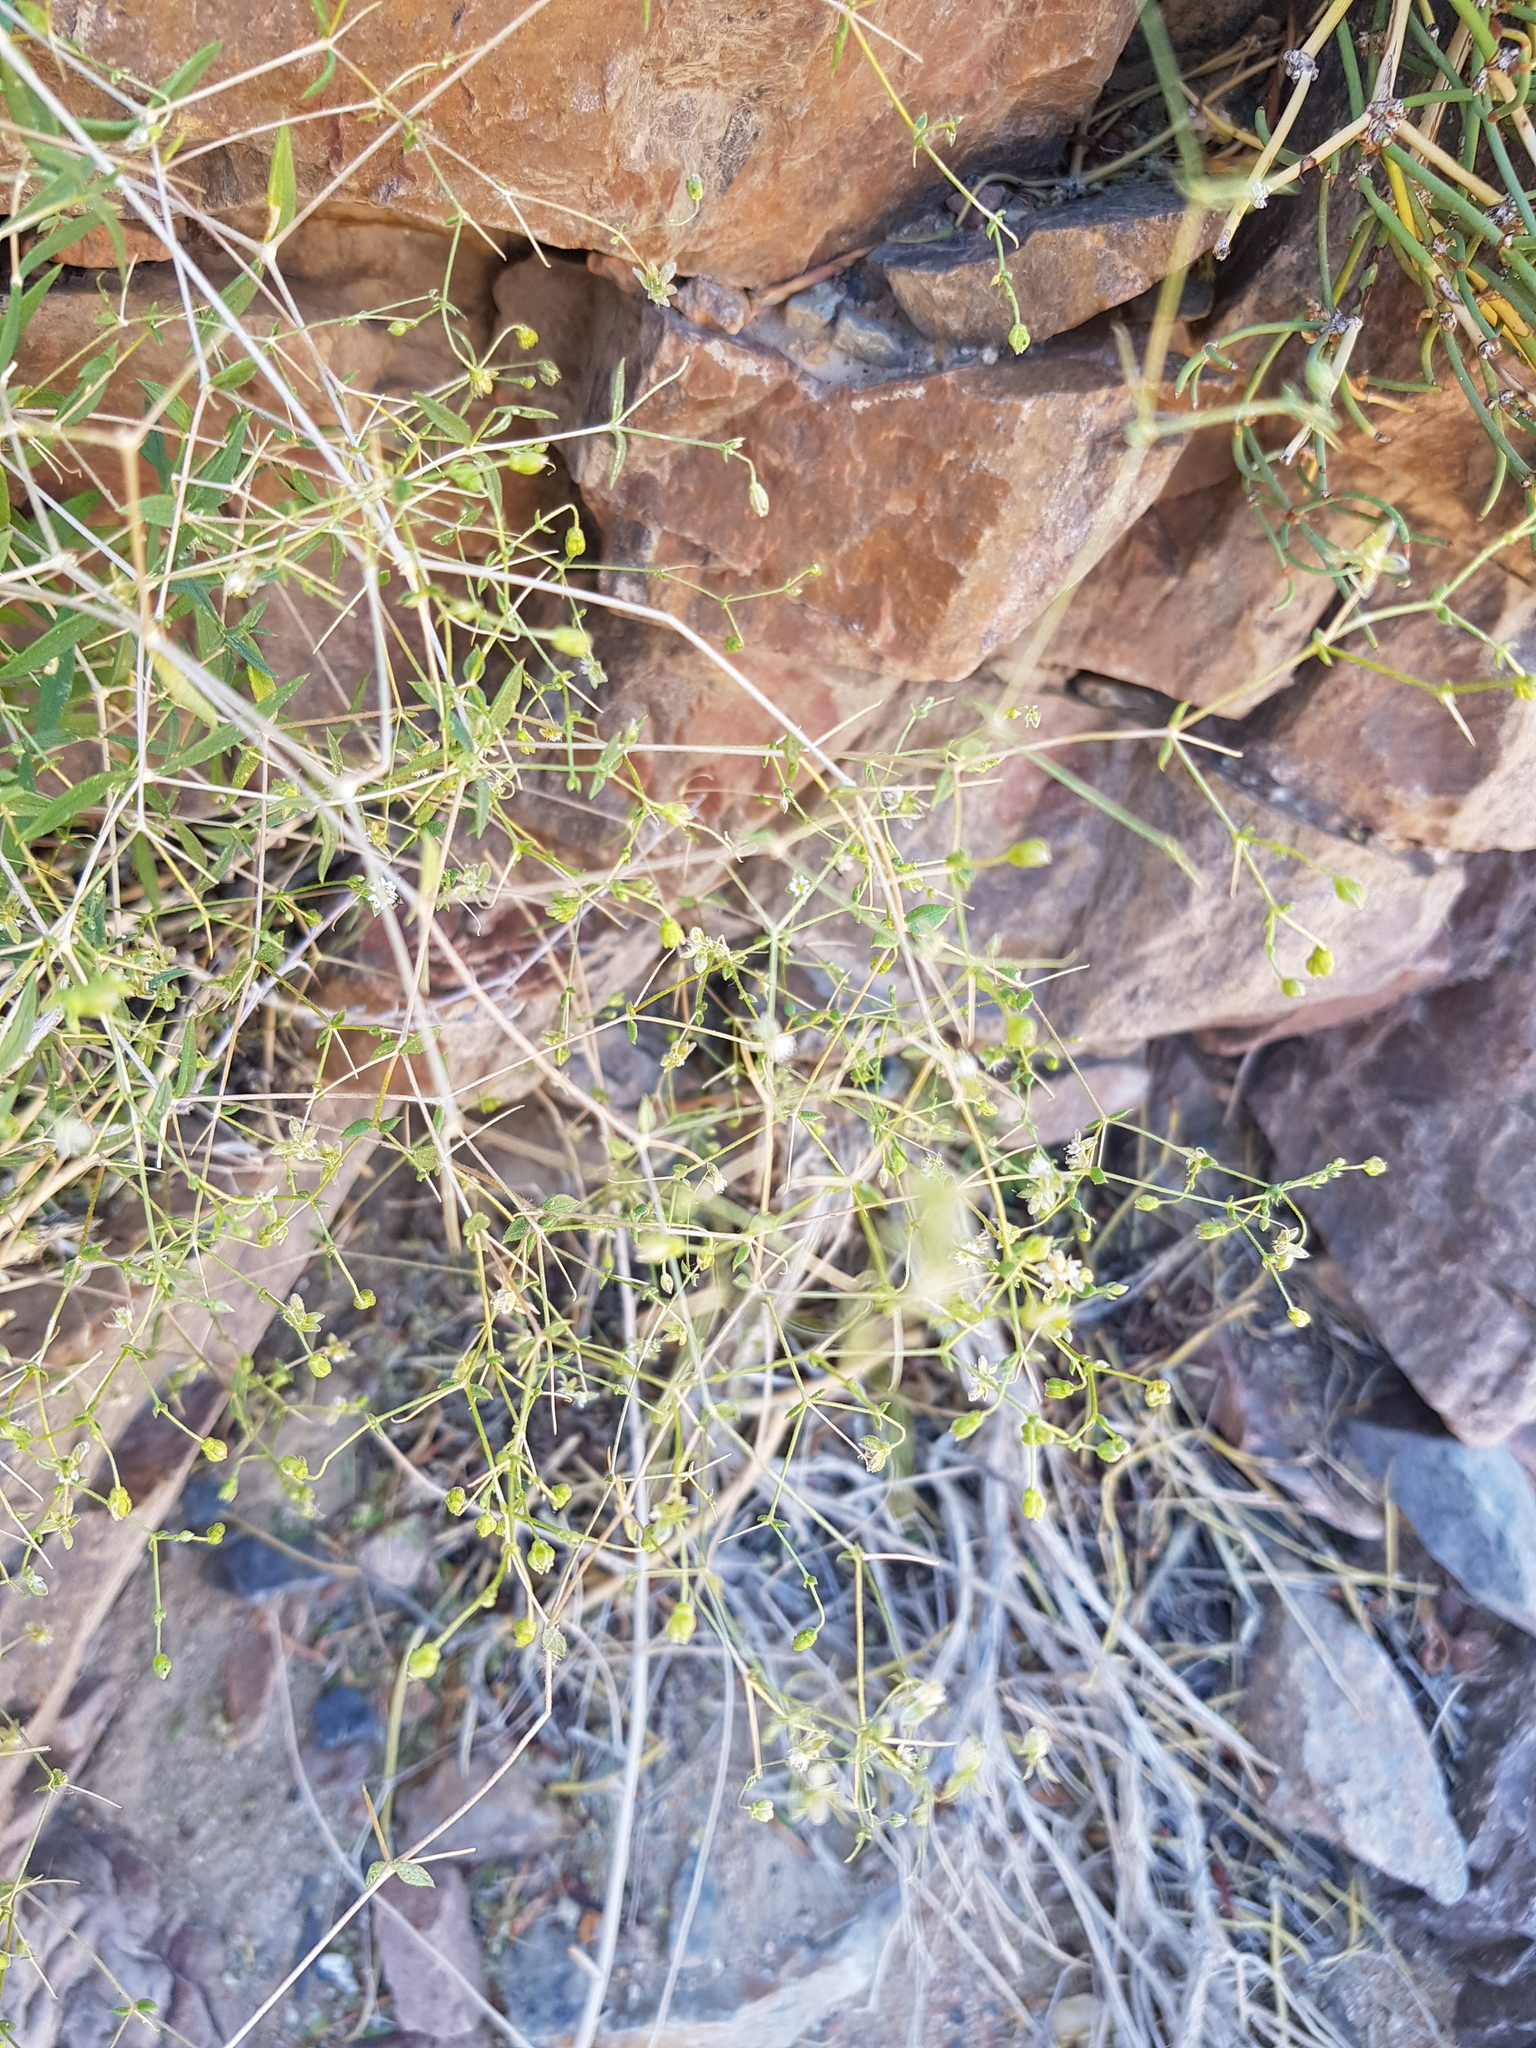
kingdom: Plantae
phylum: Tracheophyta
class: Magnoliopsida
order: Caryophyllales
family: Caryophyllaceae
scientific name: Caryophyllaceae
